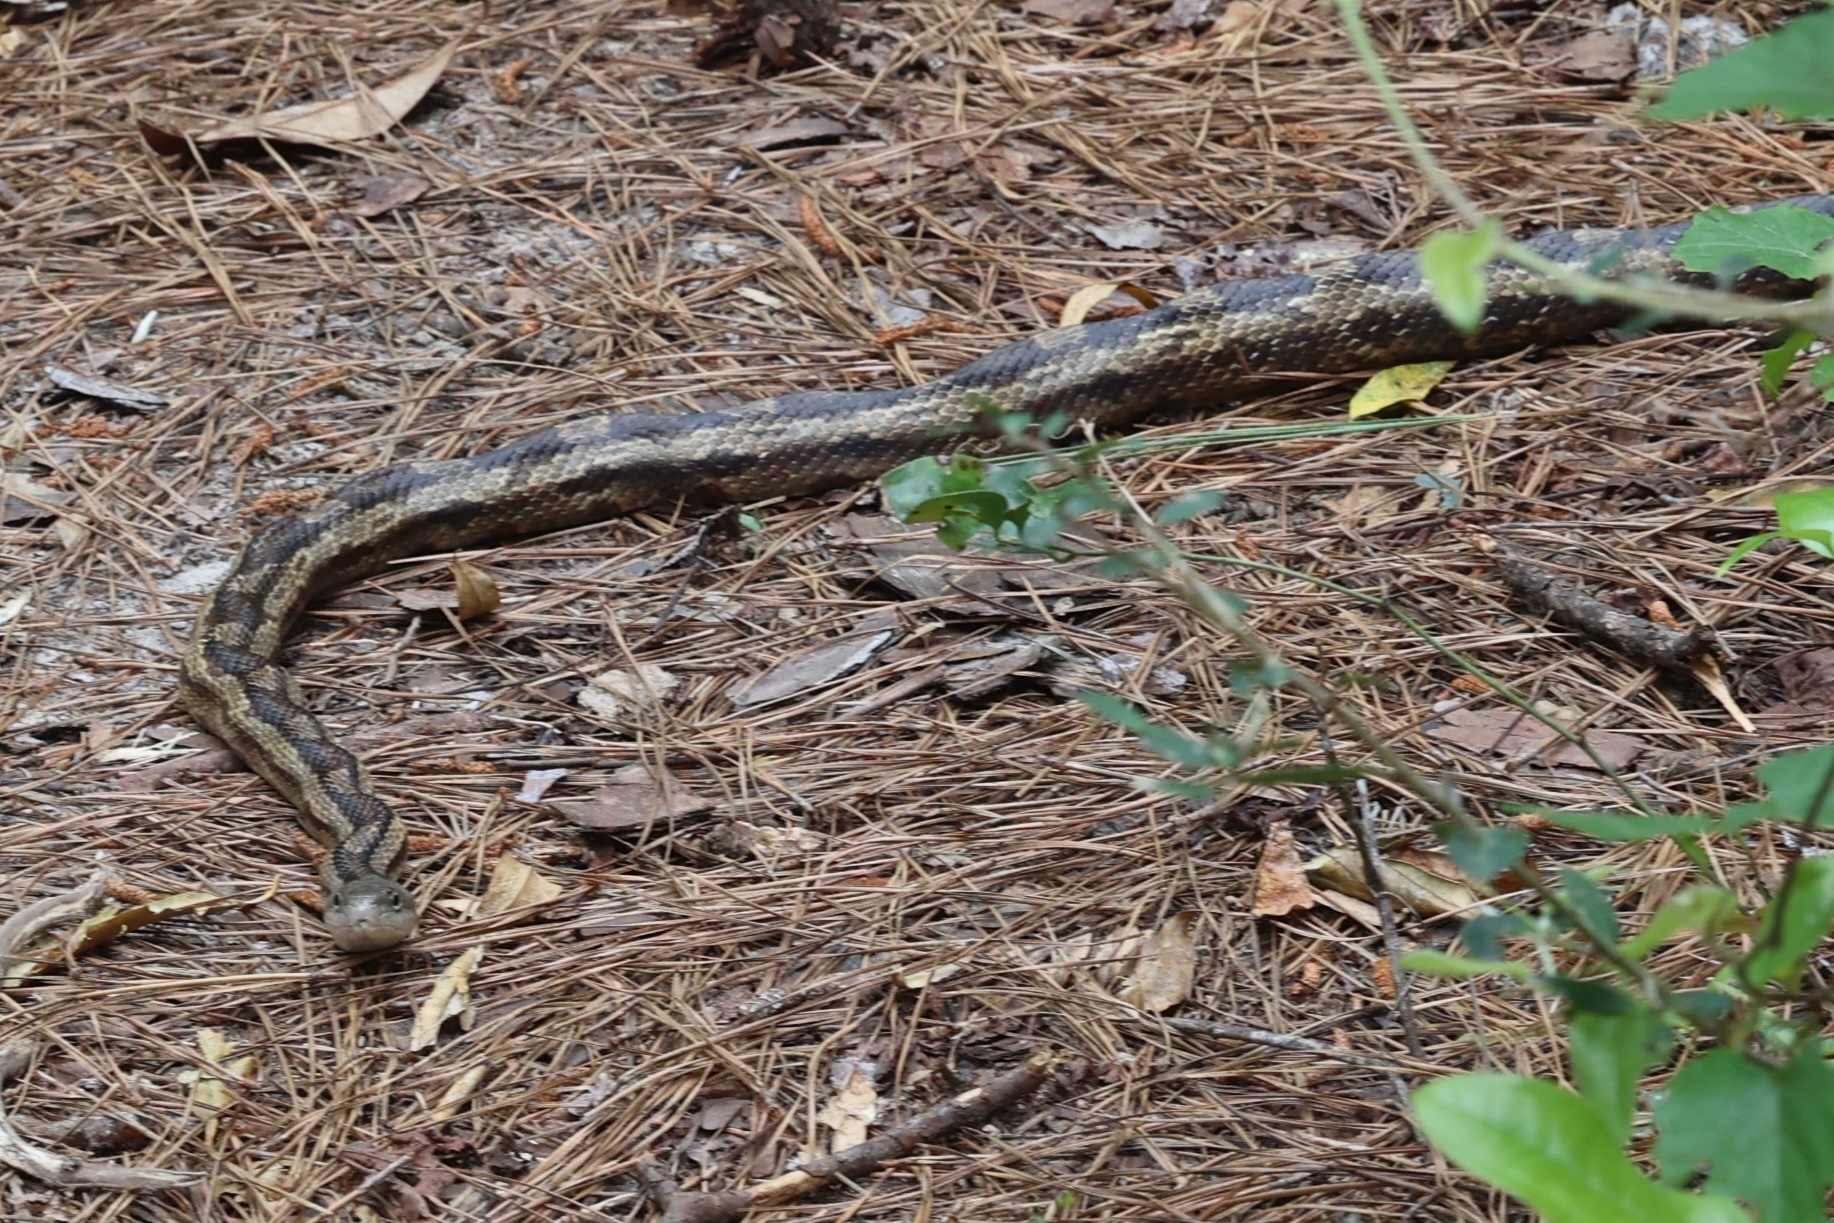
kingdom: Animalia
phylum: Chordata
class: Squamata
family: Colubridae
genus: Pantherophis
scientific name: Pantherophis spiloides
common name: Gray rat snake
